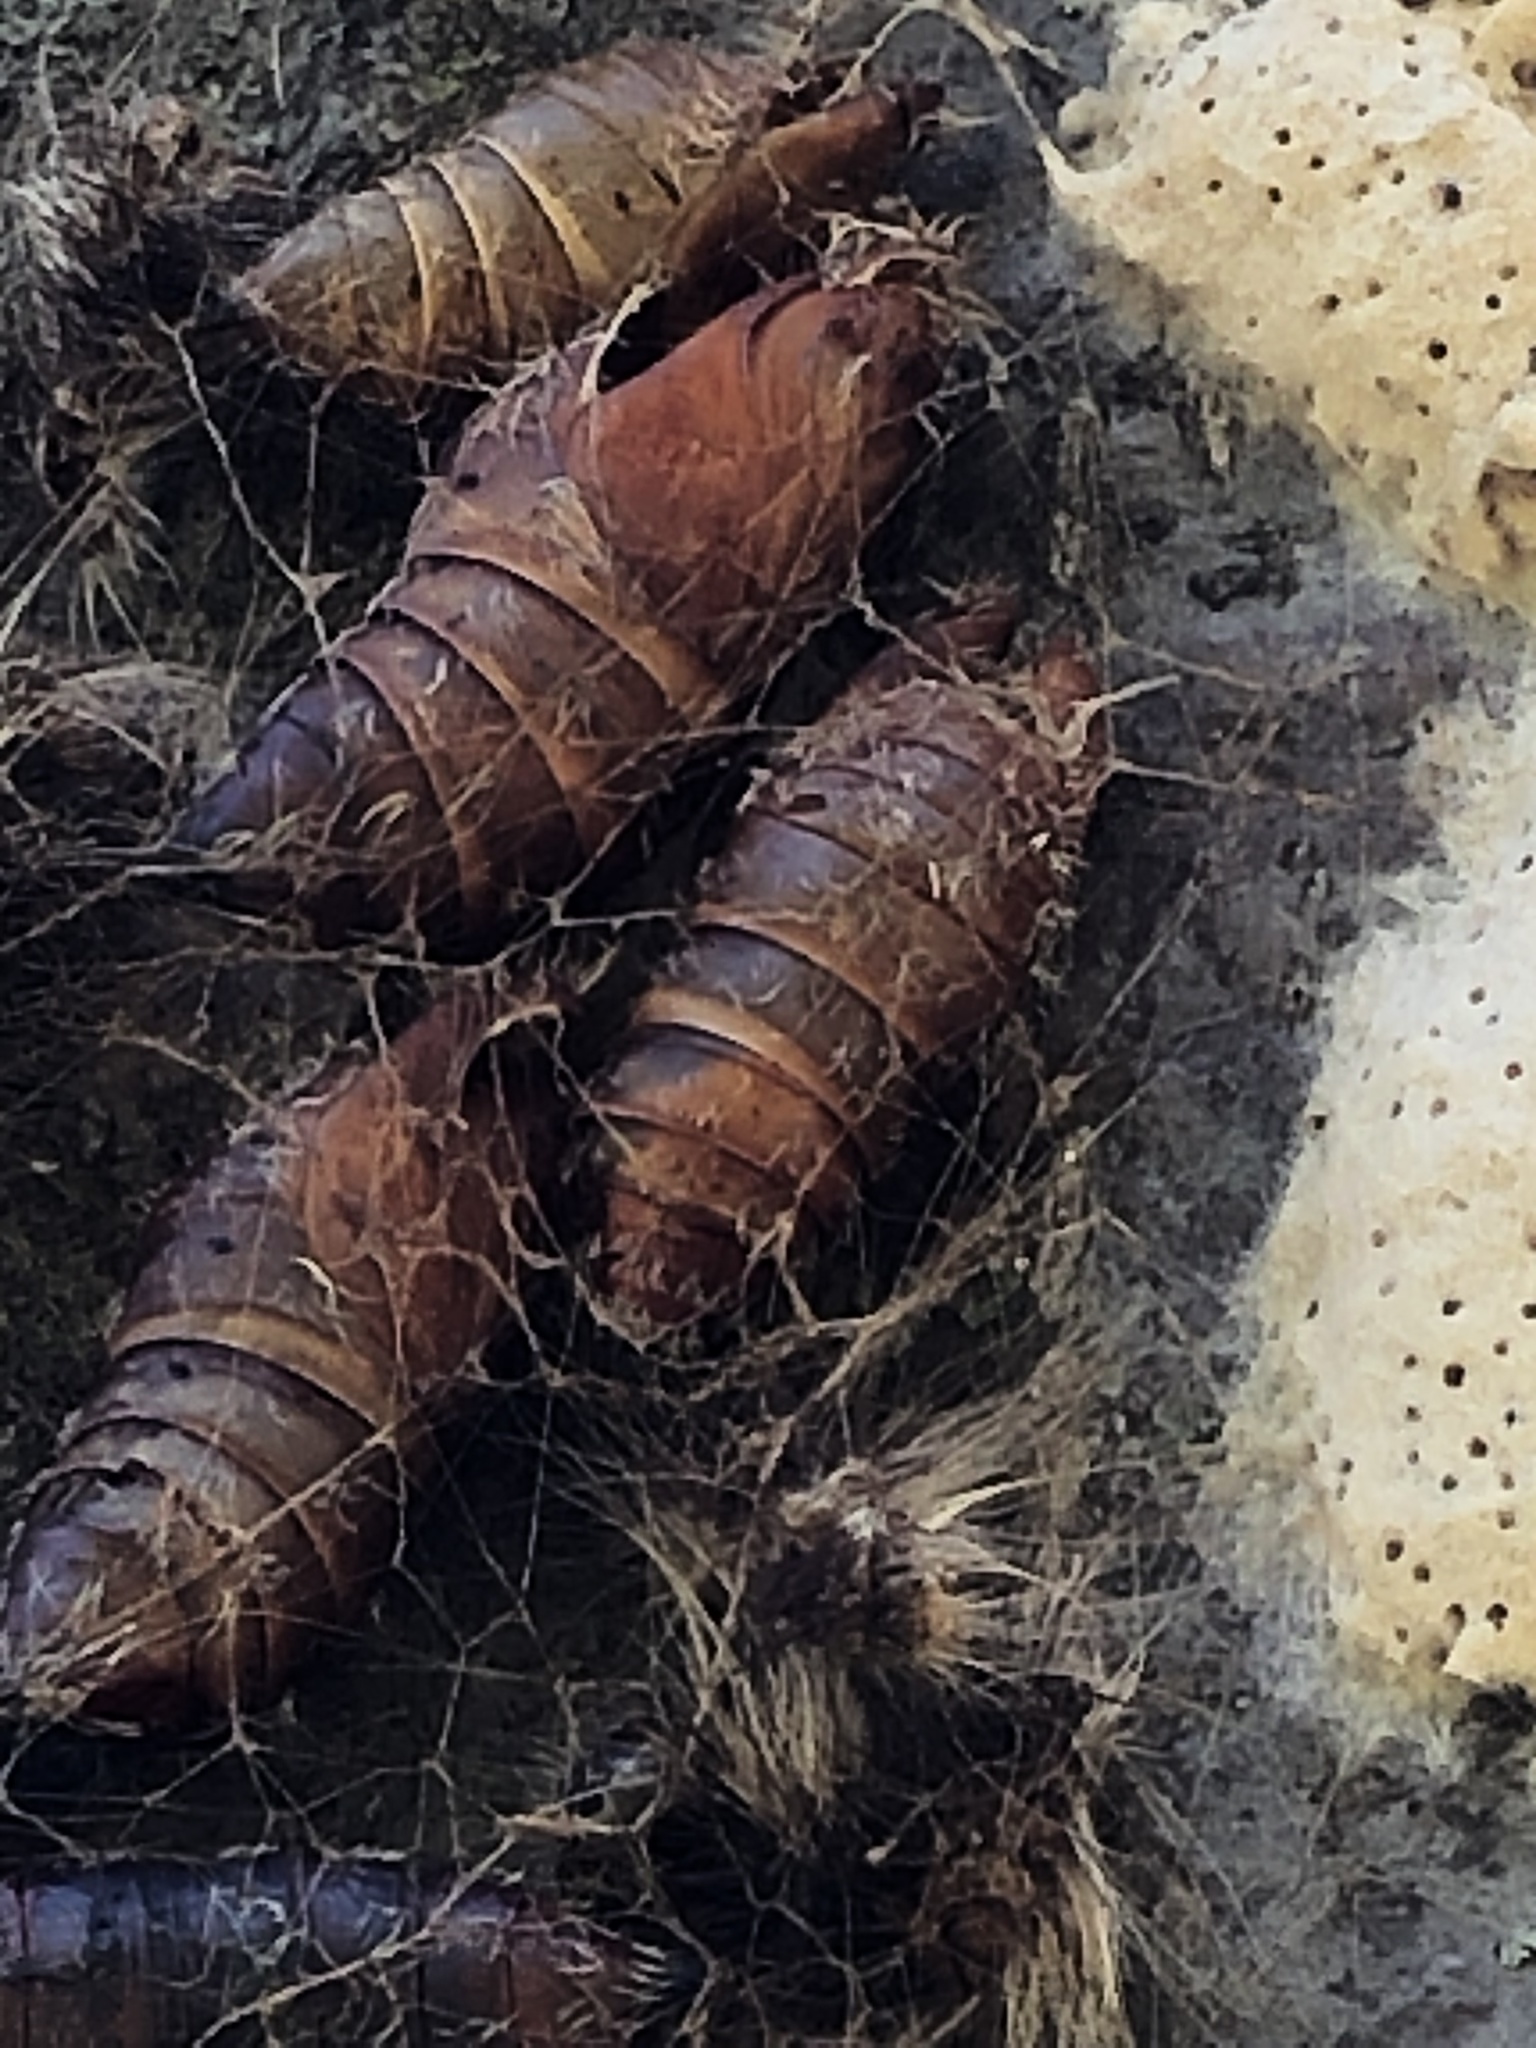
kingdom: Animalia
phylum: Arthropoda
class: Insecta
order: Lepidoptera
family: Erebidae
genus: Lymantria
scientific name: Lymantria dispar
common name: Gypsy moth
